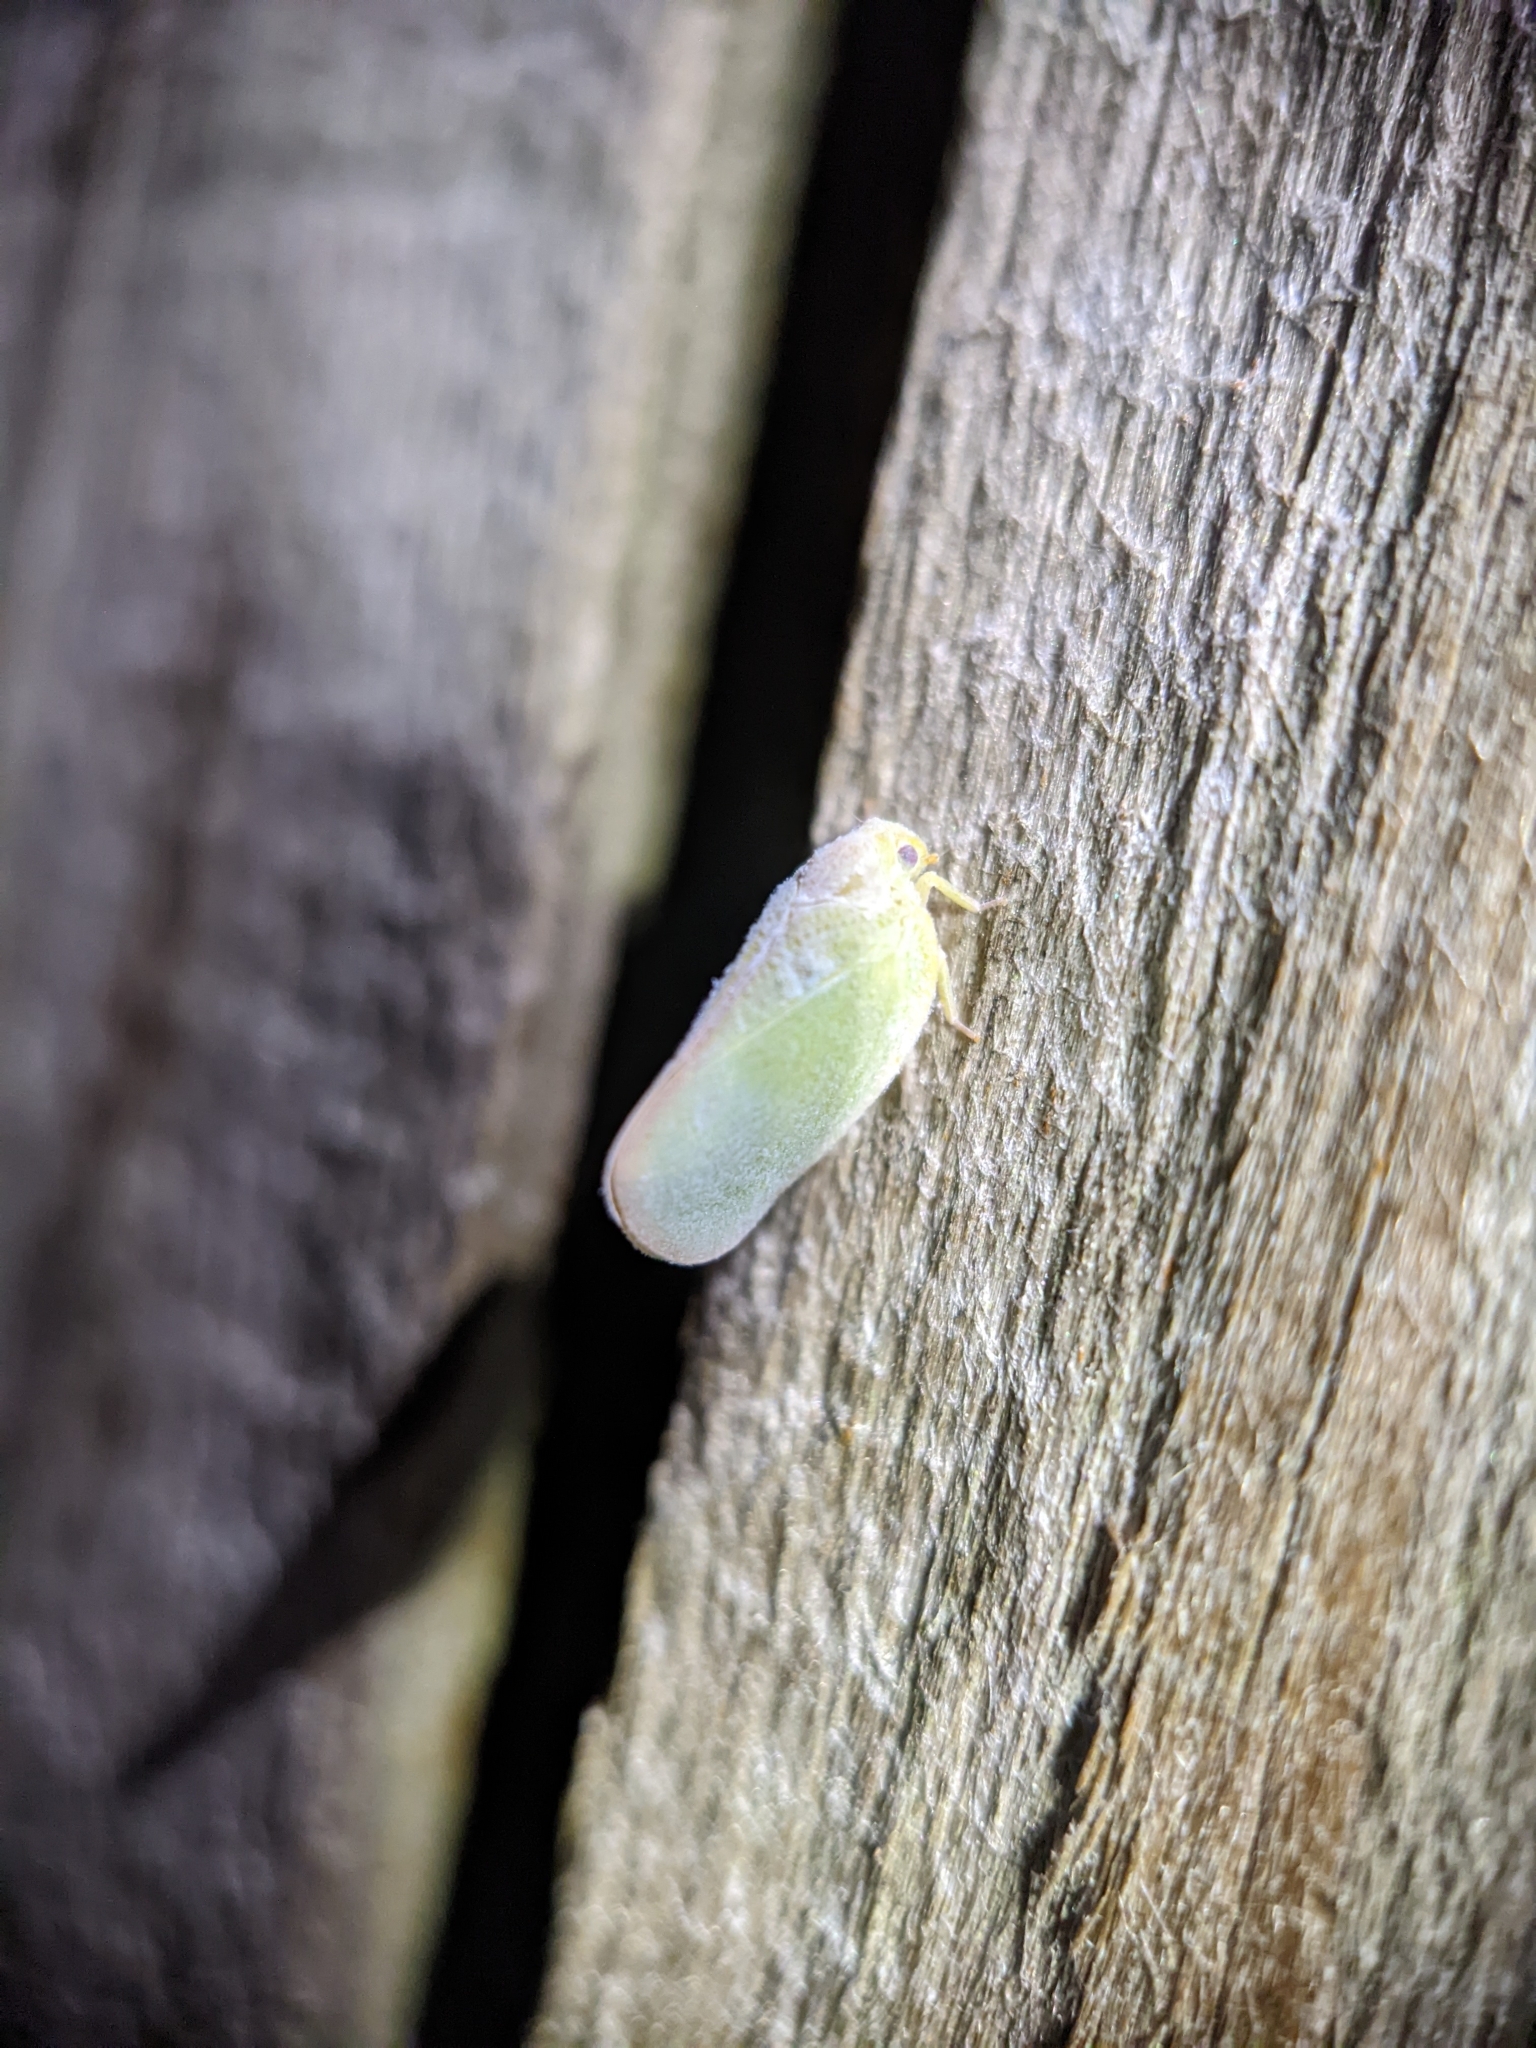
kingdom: Animalia
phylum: Arthropoda
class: Insecta
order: Hemiptera
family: Flatidae
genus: Ormenoides
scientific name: Ormenoides venusta
